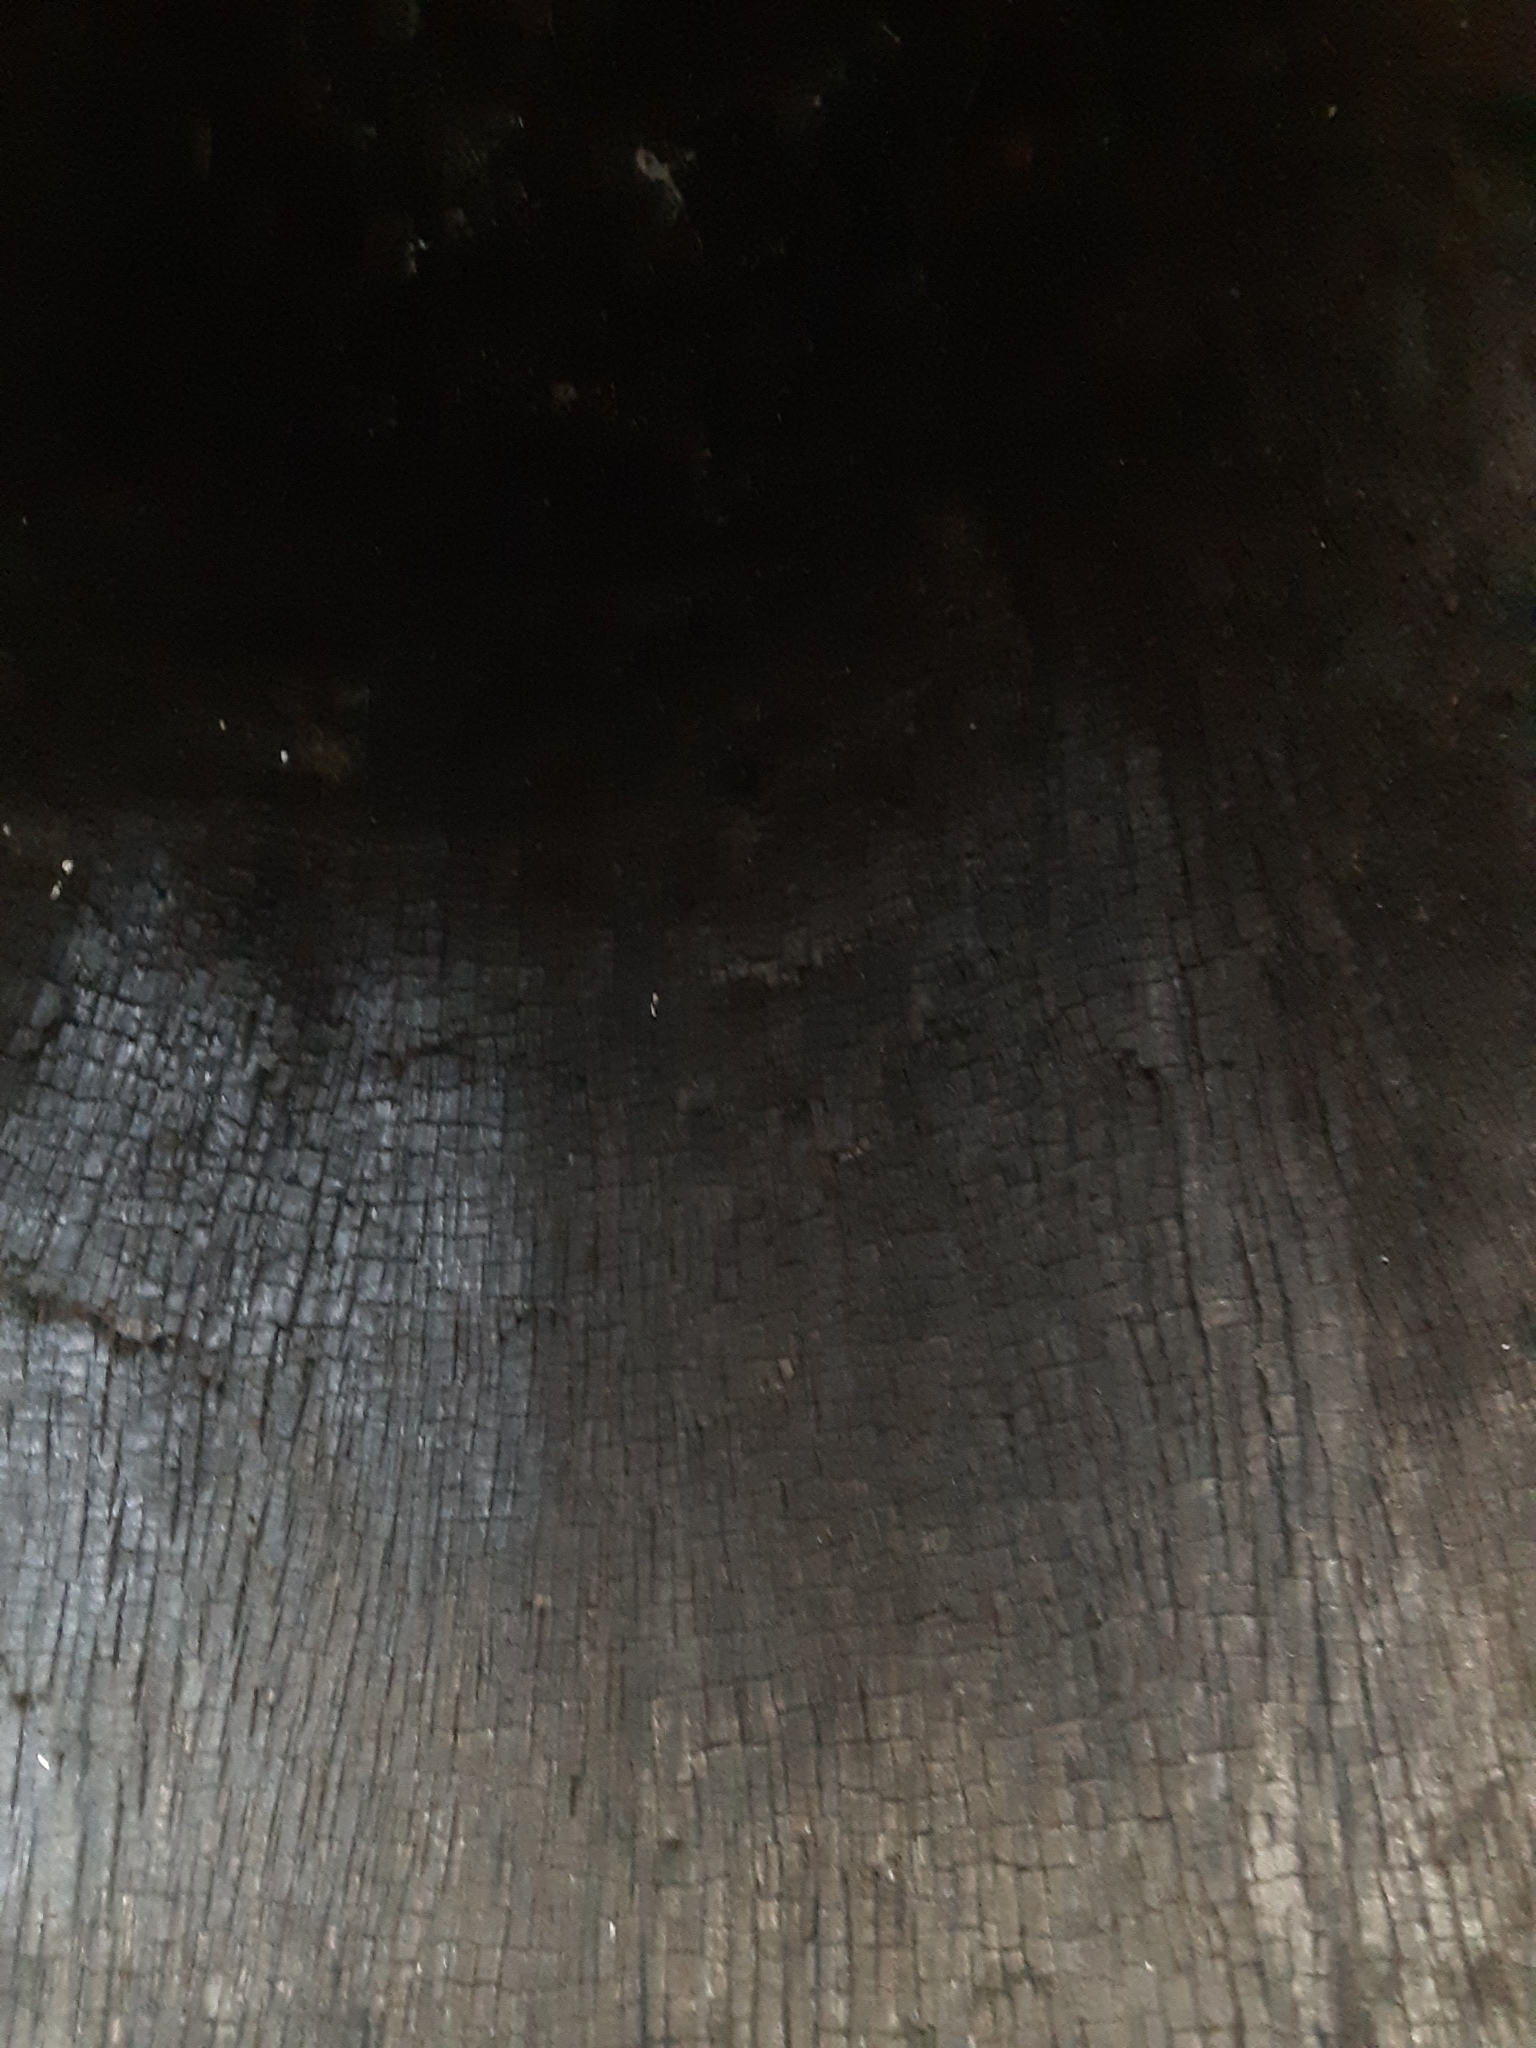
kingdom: Plantae
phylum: Tracheophyta
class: Pinopsida
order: Pinales
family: Cupressaceae
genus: Sequoiadendron
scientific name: Sequoiadendron giganteum
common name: Wellingtonia
